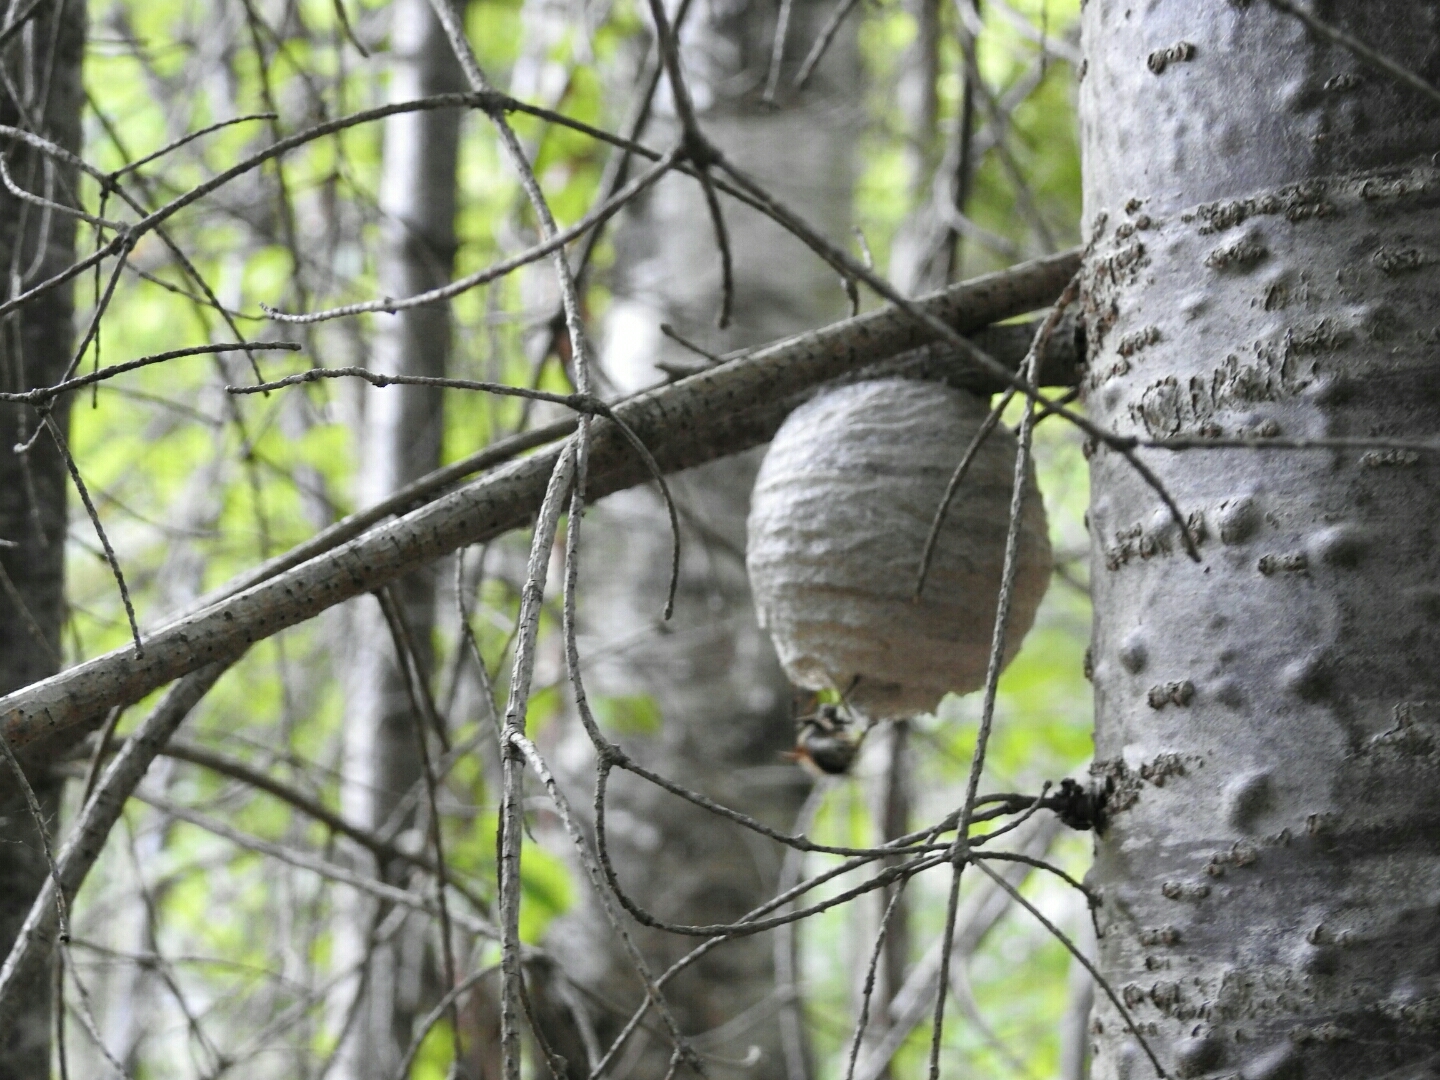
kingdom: Animalia
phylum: Arthropoda
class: Insecta
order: Hymenoptera
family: Vespidae
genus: Dolichovespula
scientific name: Dolichovespula maculata
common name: Bald-faced hornet
